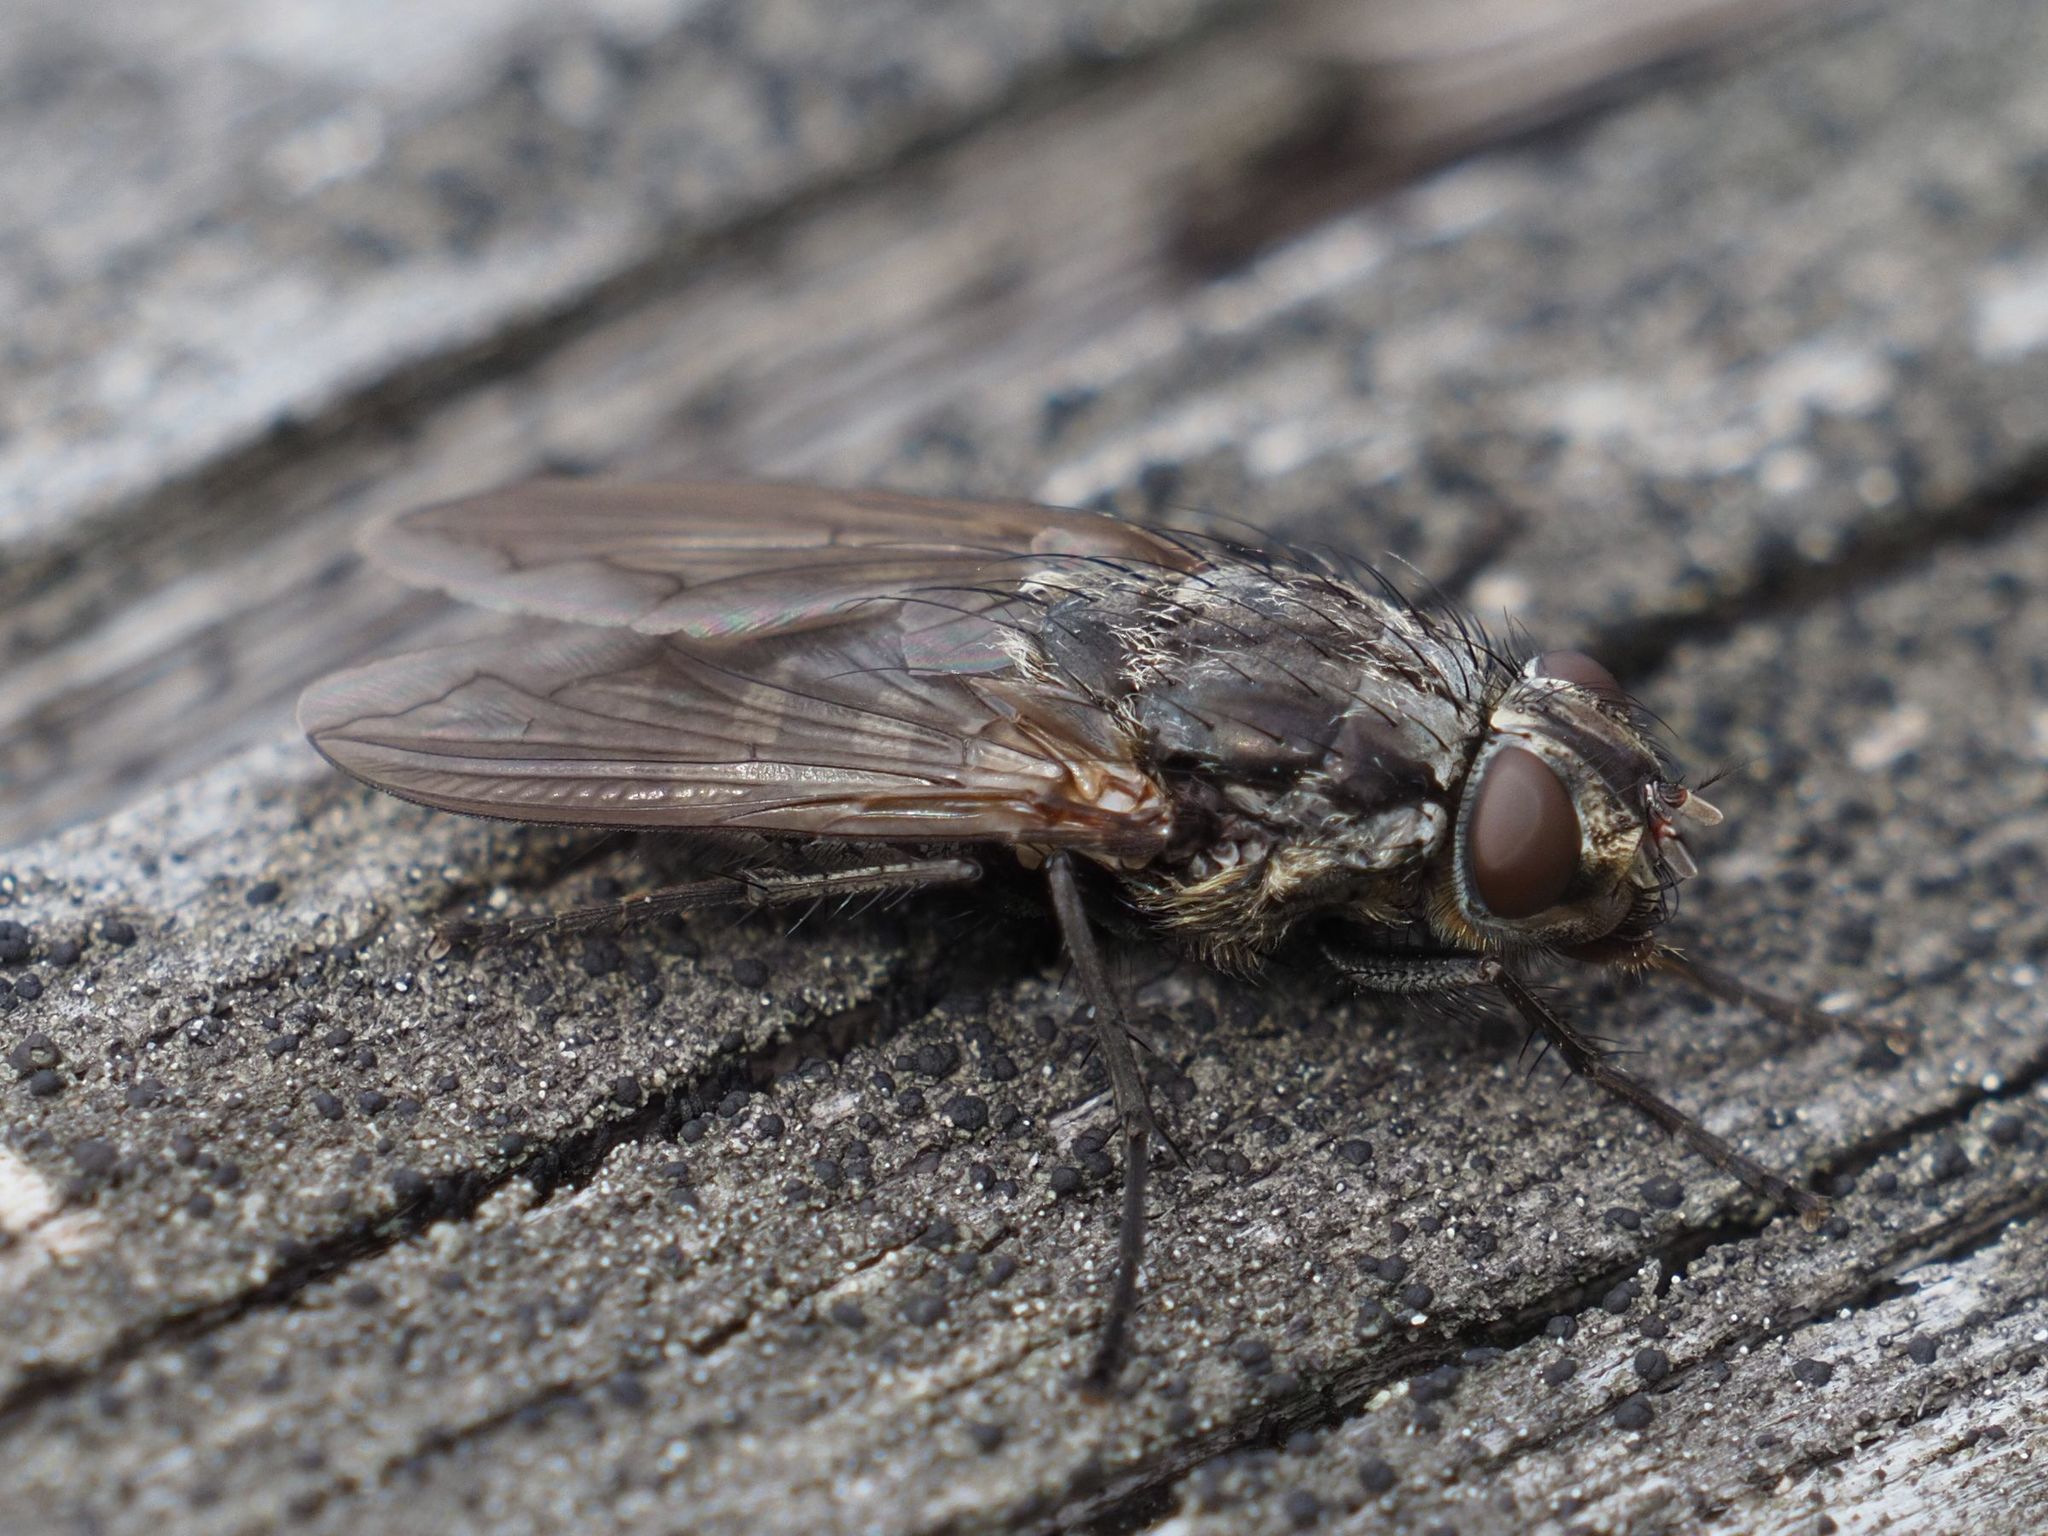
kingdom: Animalia
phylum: Arthropoda
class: Insecta
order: Diptera
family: Polleniidae
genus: Pollenia
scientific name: Pollenia vagabunda
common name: Vagabund cluster fly
